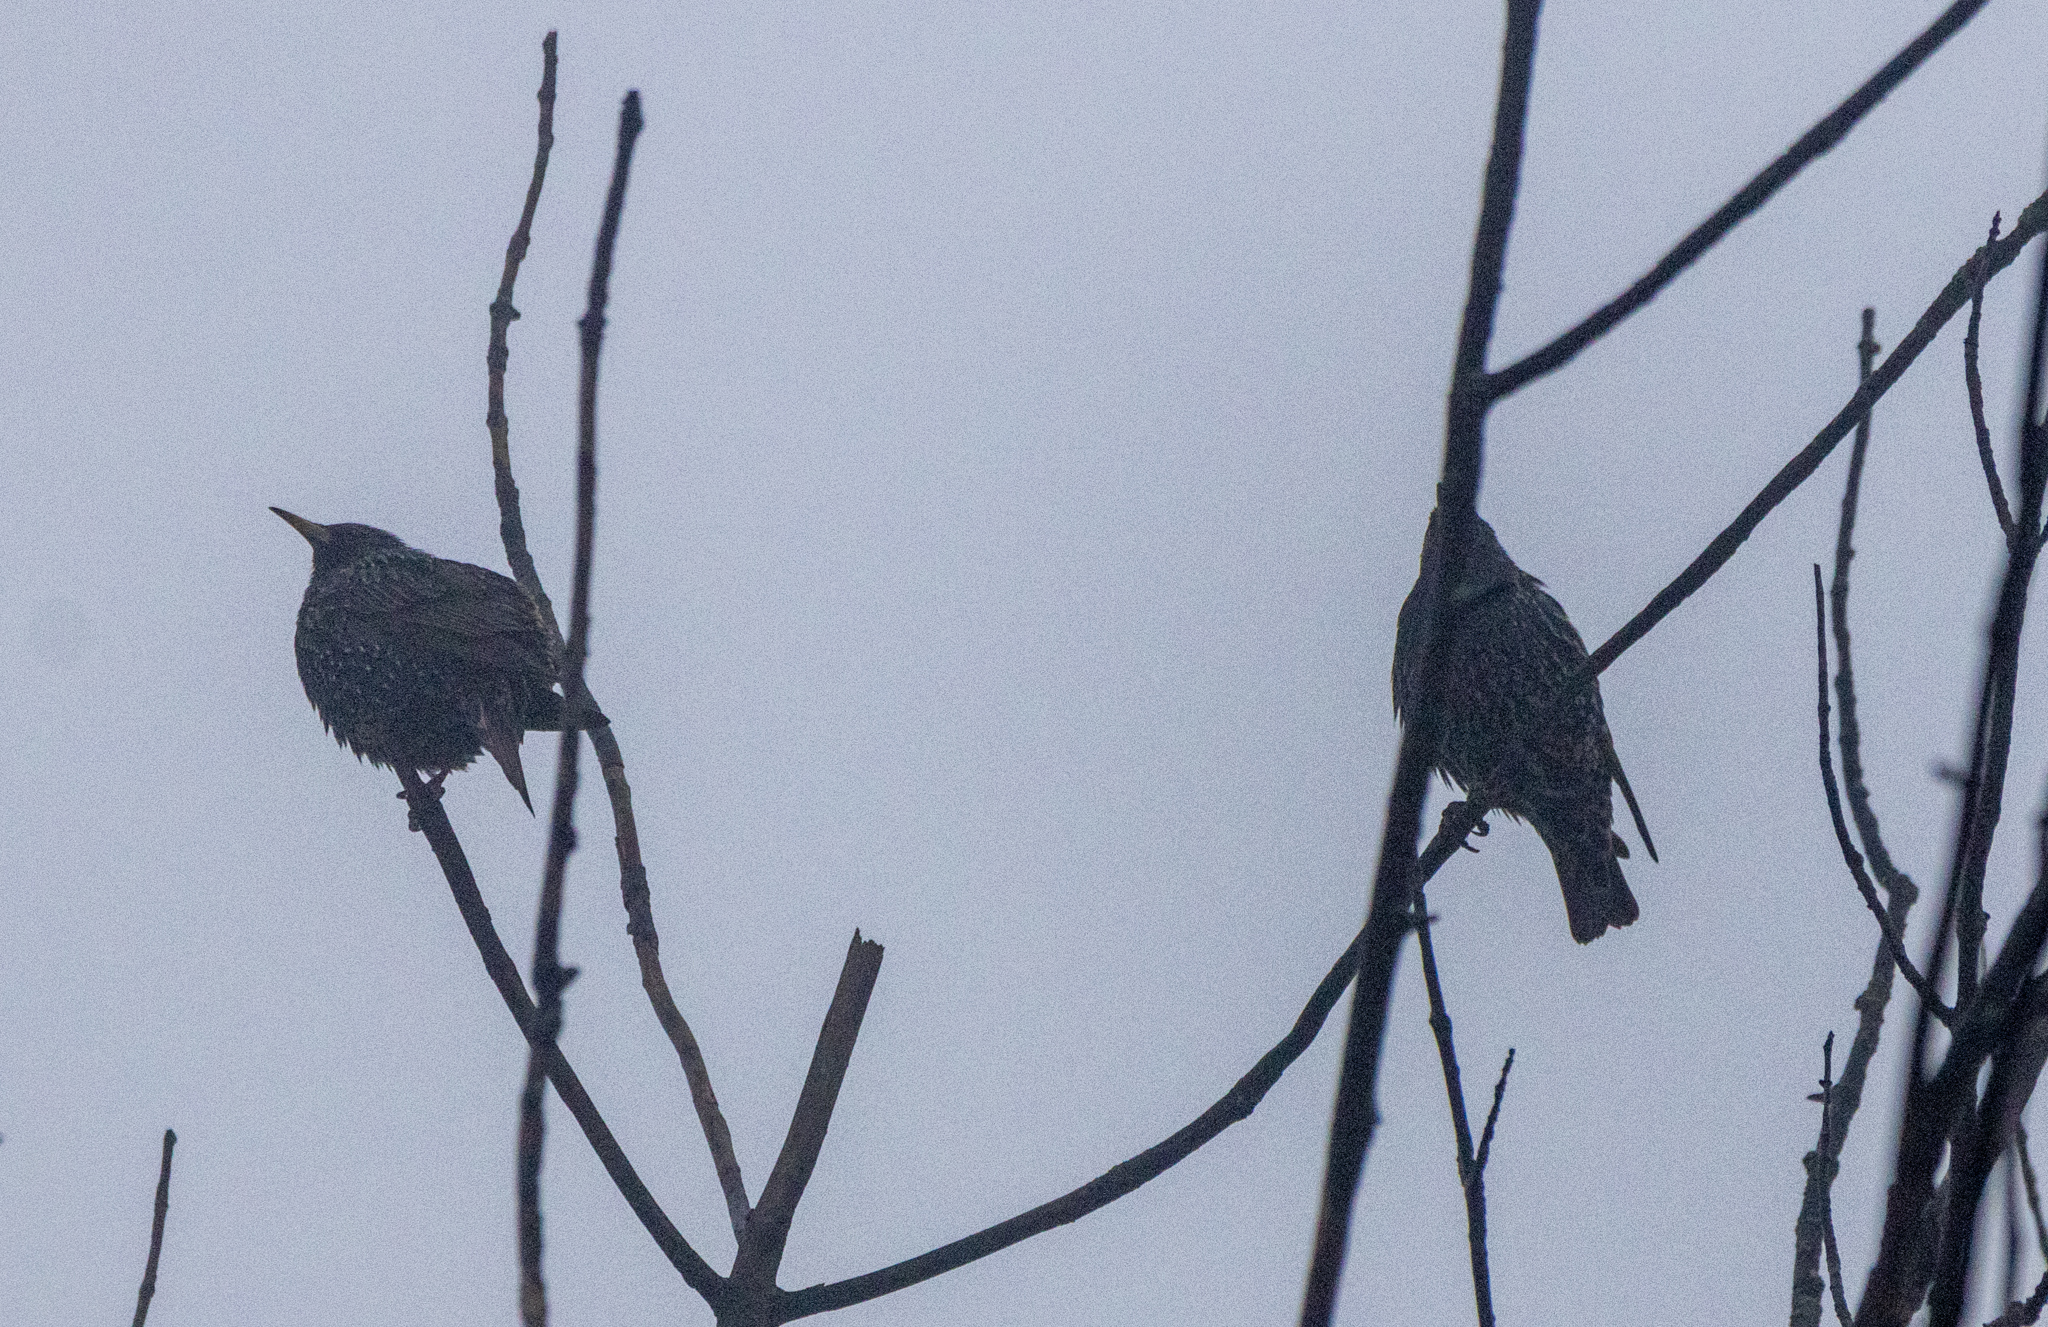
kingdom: Animalia
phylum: Chordata
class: Aves
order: Passeriformes
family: Sturnidae
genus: Sturnus
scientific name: Sturnus vulgaris
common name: Common starling
